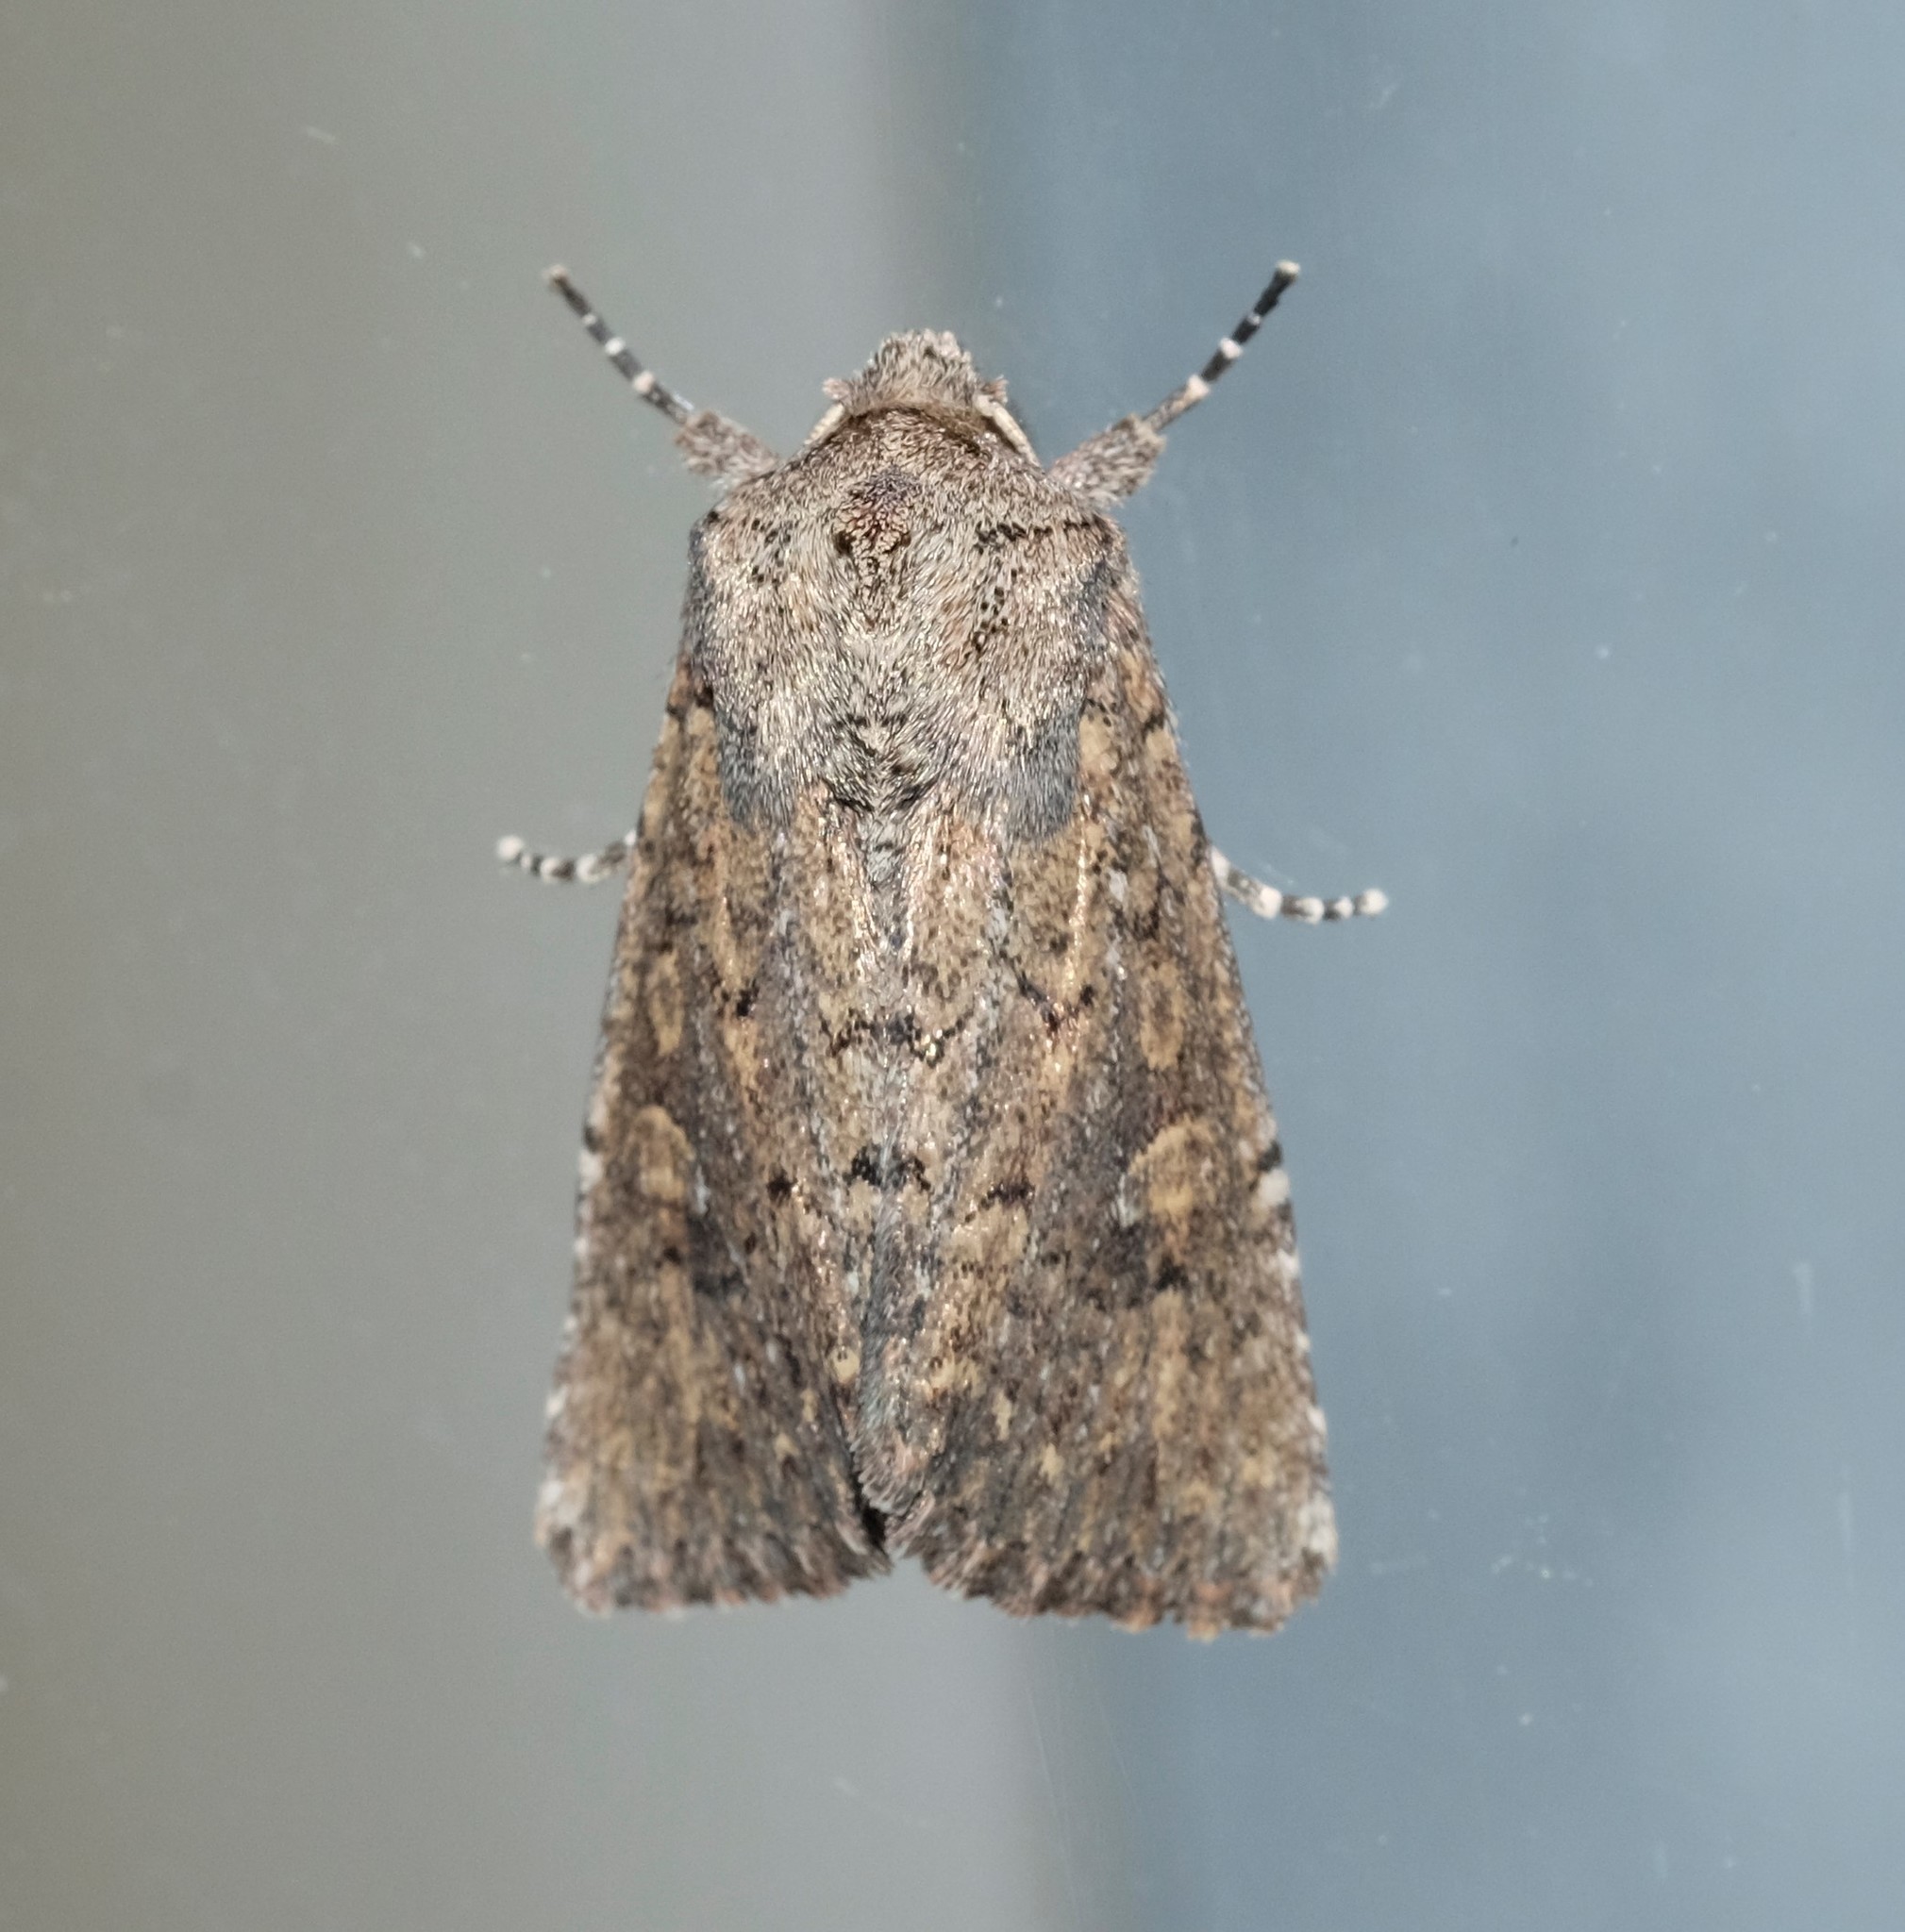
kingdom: Animalia
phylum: Arthropoda
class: Insecta
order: Lepidoptera
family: Noctuidae
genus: Dasygaster
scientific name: Dasygaster padockina
